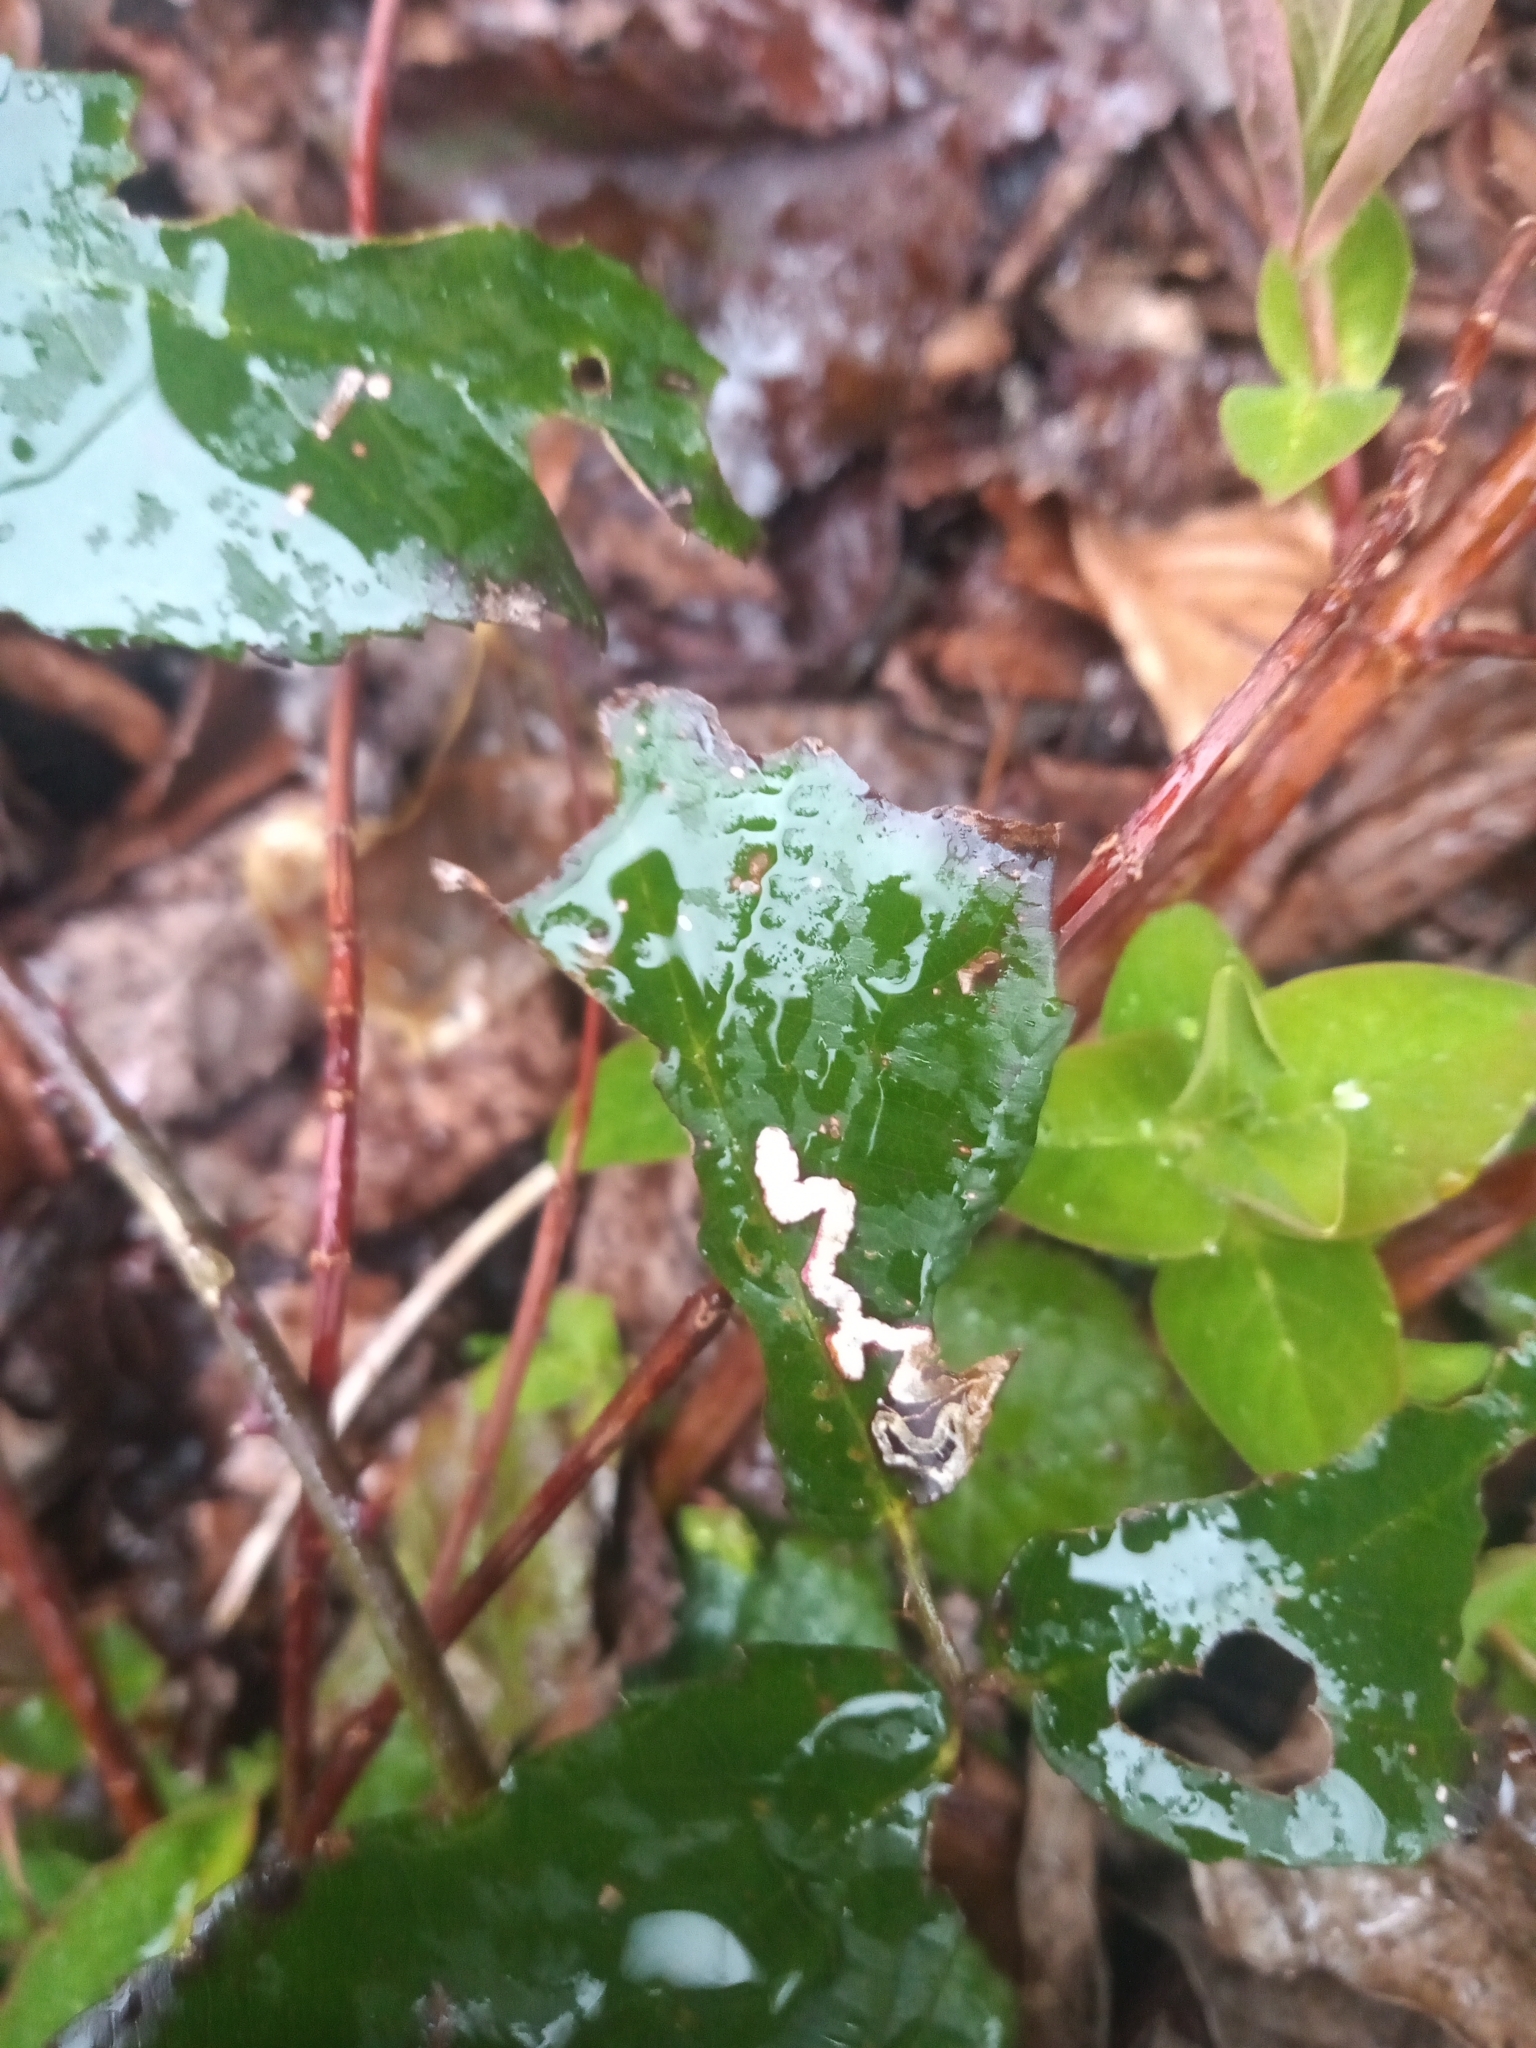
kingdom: Animalia
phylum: Arthropoda
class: Insecta
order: Lepidoptera
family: Nepticulidae
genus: Stigmella
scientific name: Stigmella aurella
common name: Golden pigmy
